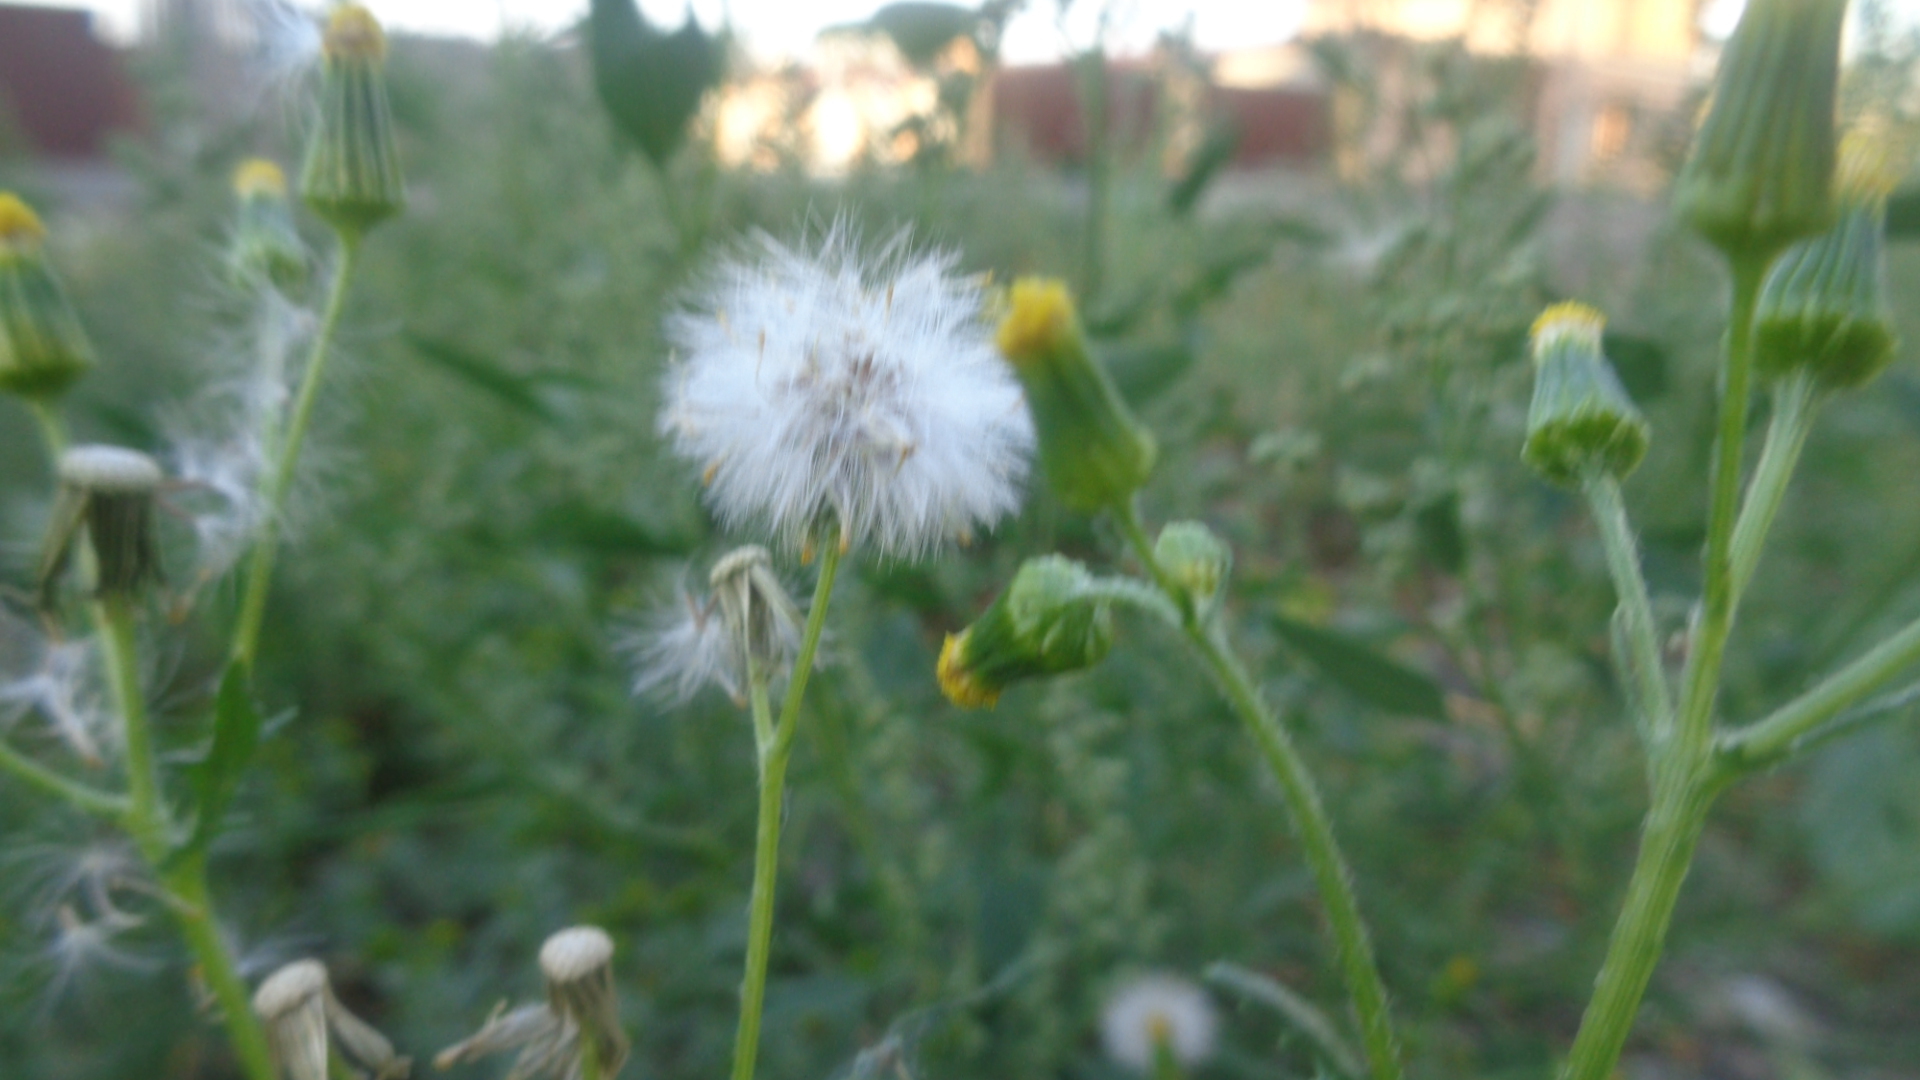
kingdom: Plantae
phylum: Tracheophyta
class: Magnoliopsida
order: Asterales
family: Asteraceae
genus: Senecio
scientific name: Senecio vulgaris
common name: Old-man-in-the-spring
